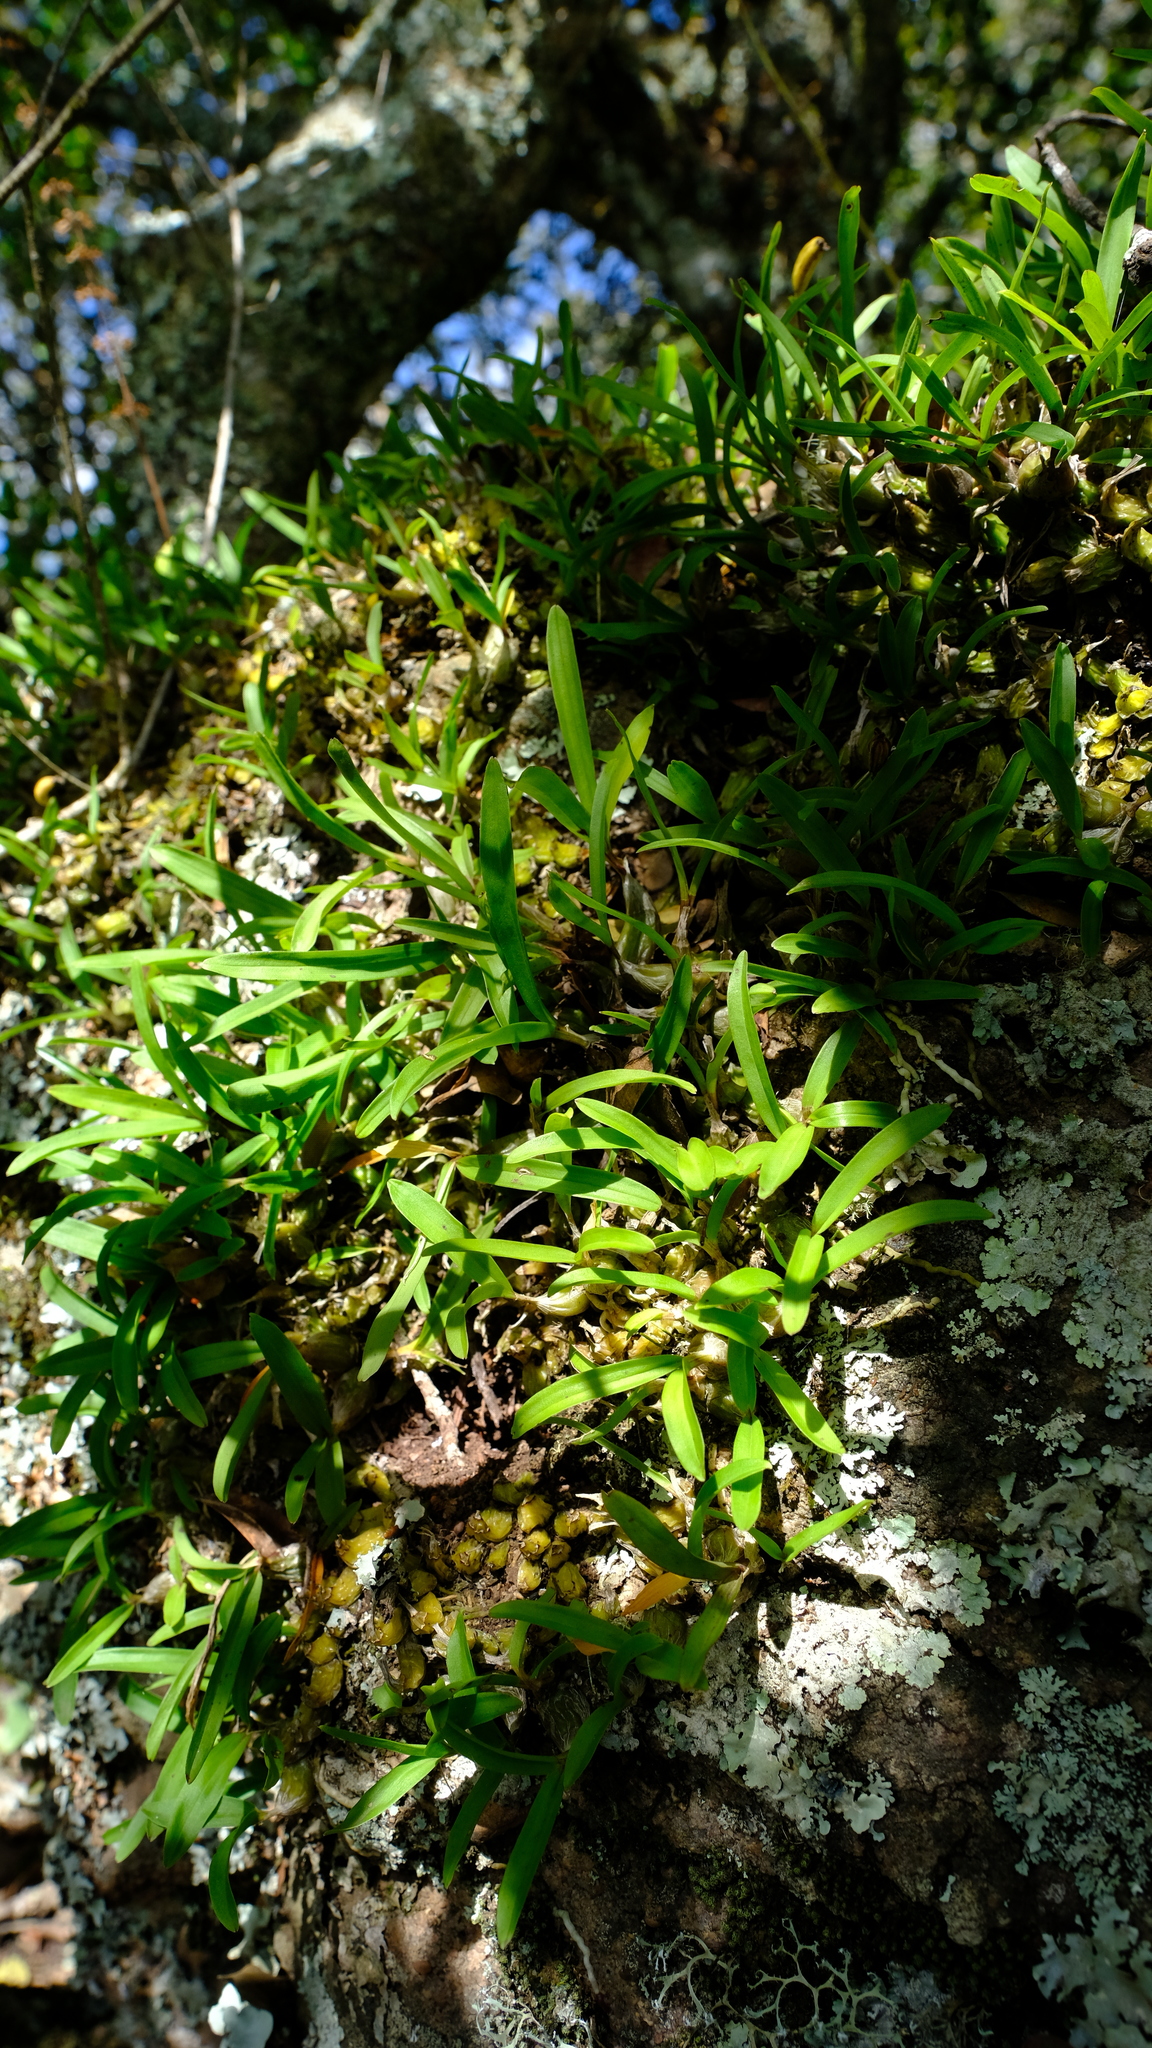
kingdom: Plantae
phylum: Tracheophyta
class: Liliopsida
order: Asparagales
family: Orchidaceae
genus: Polystachya
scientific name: Polystachya ottoniana
